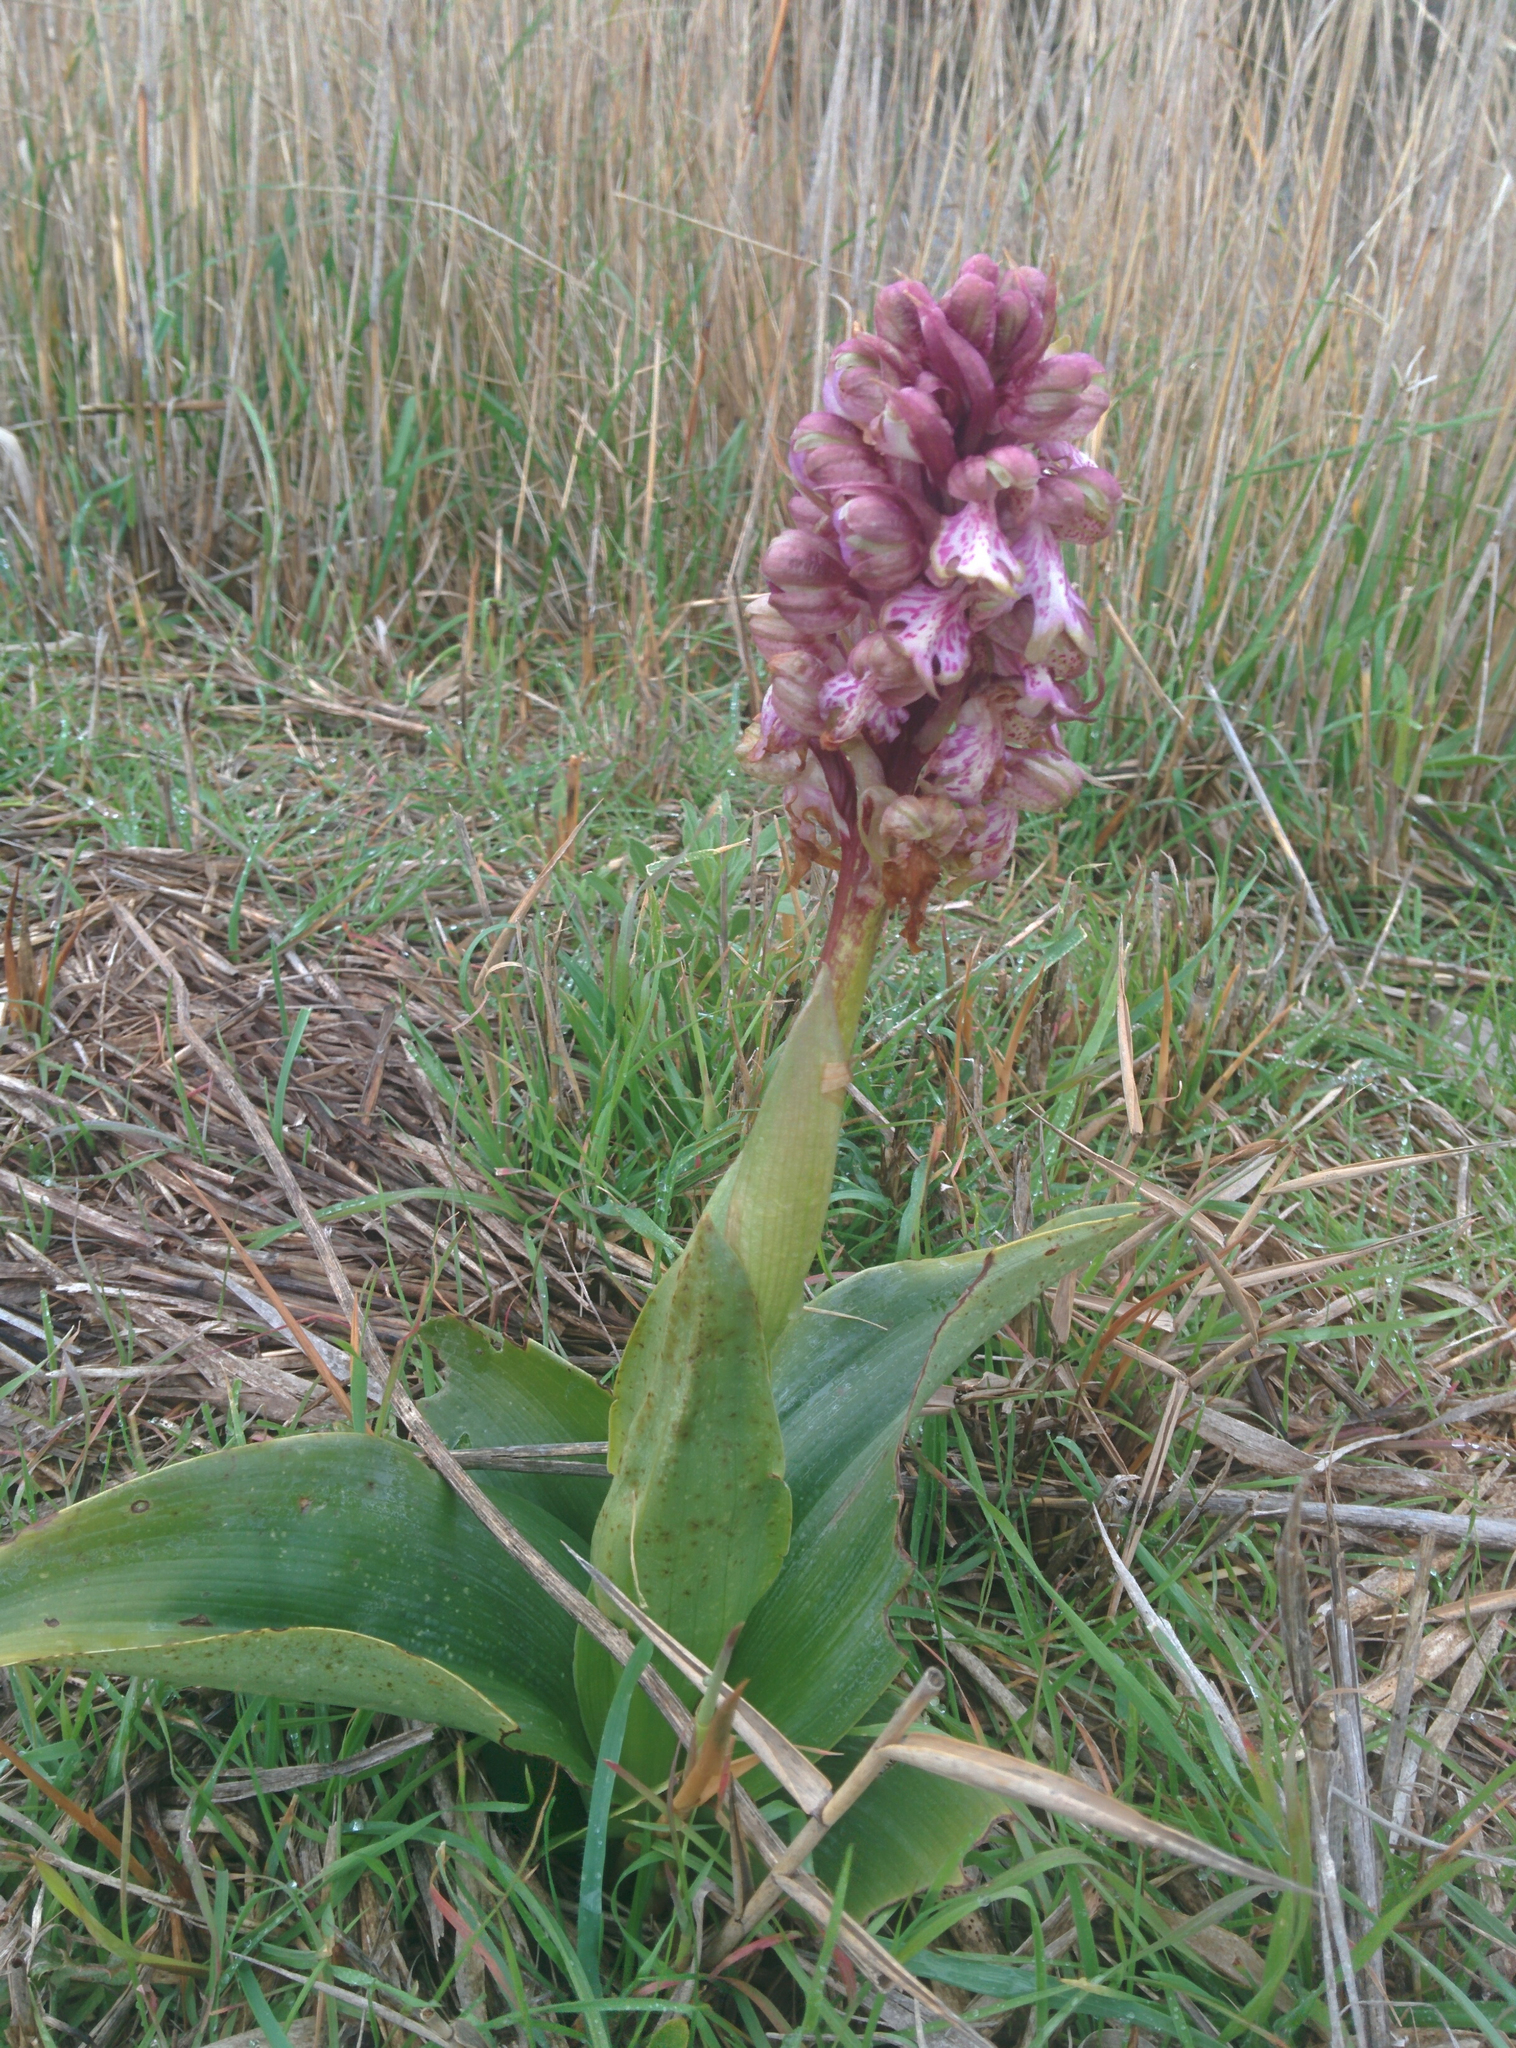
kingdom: Plantae
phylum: Tracheophyta
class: Liliopsida
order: Asparagales
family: Orchidaceae
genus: Himantoglossum
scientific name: Himantoglossum robertianum
